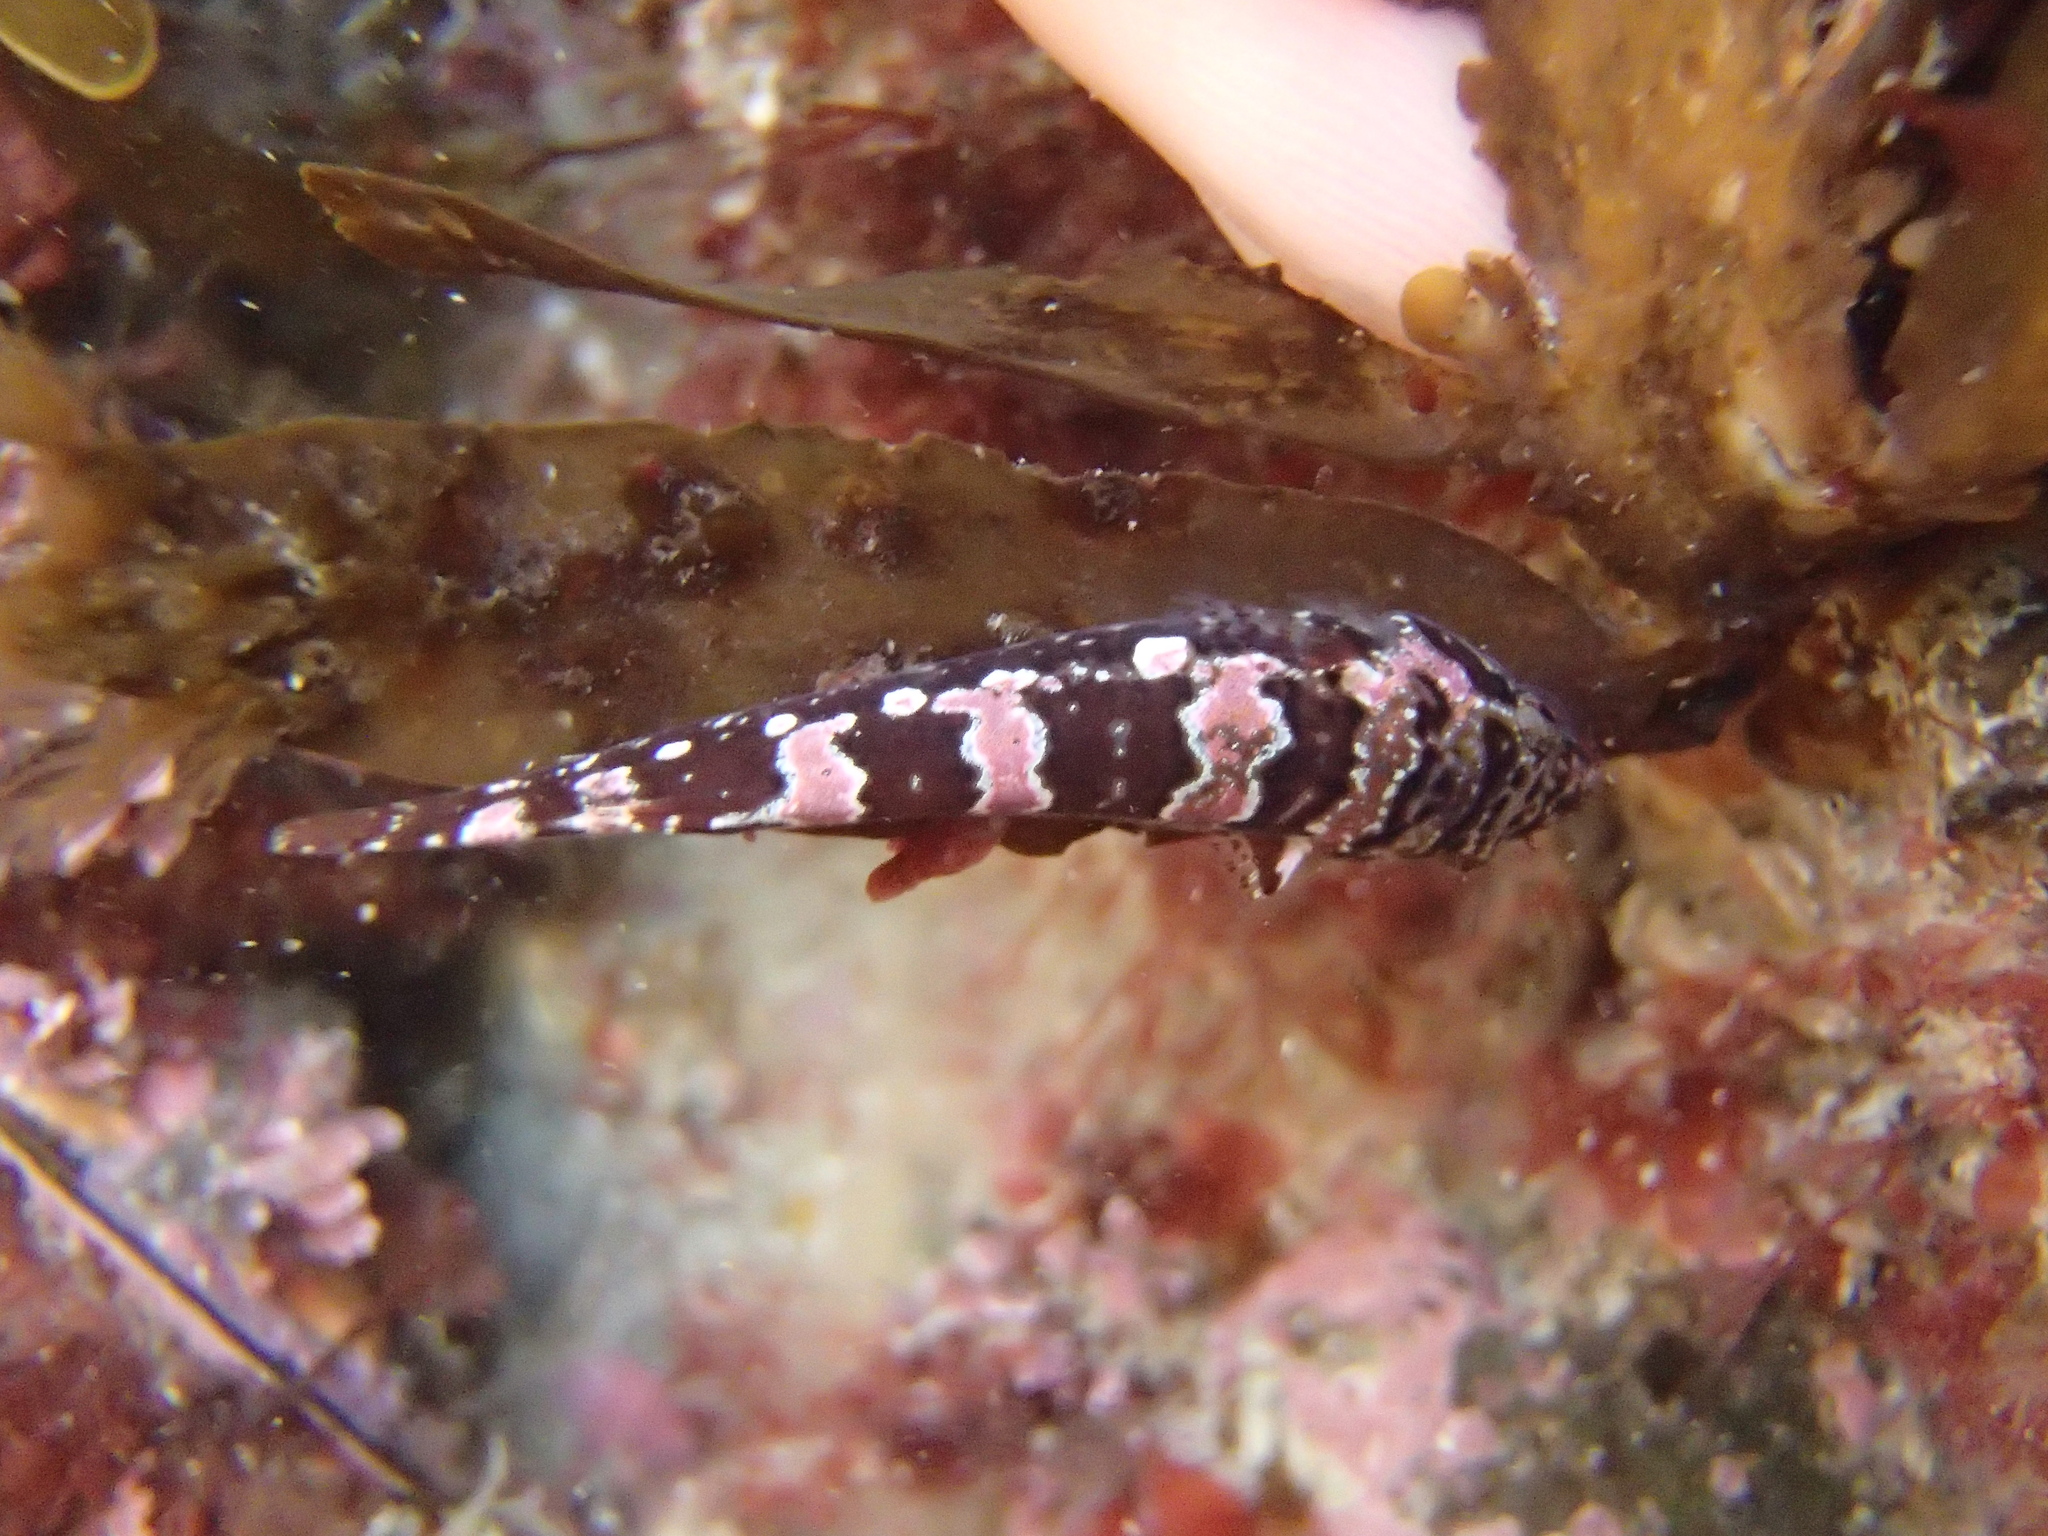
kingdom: Animalia
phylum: Chordata
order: Gobiesociformes
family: Gobiesocidae
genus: Gastroscyphus
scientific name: Gastroscyphus hectoris
